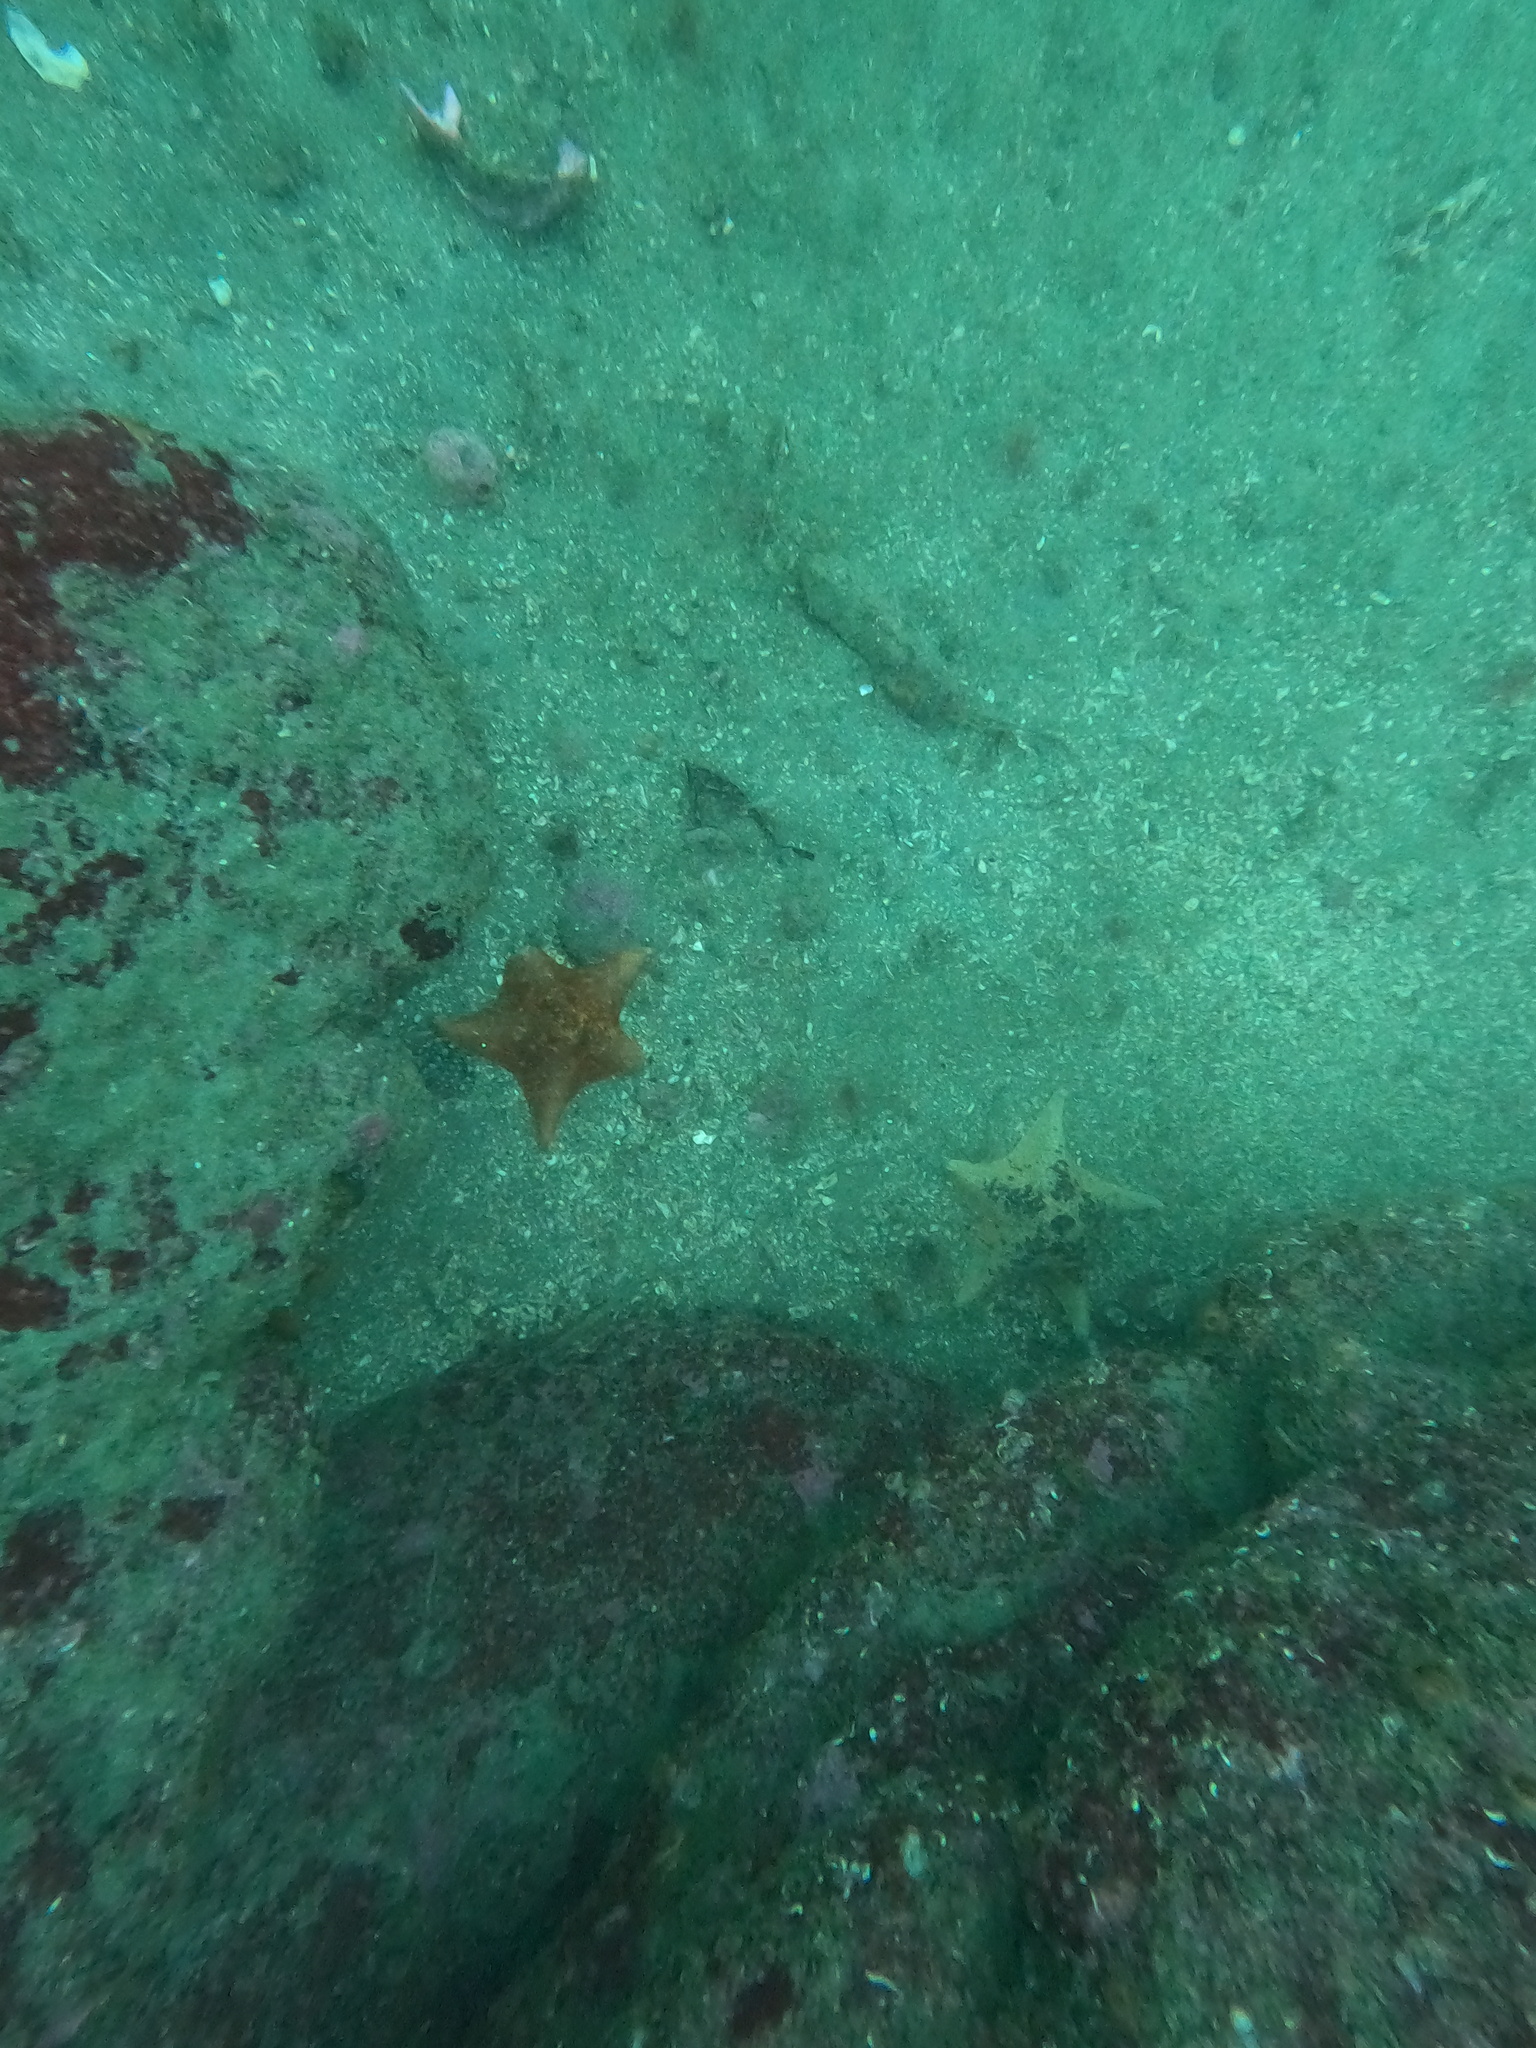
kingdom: Animalia
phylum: Echinodermata
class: Asteroidea
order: Valvatida
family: Asterinidae
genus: Patiria
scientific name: Patiria miniata
